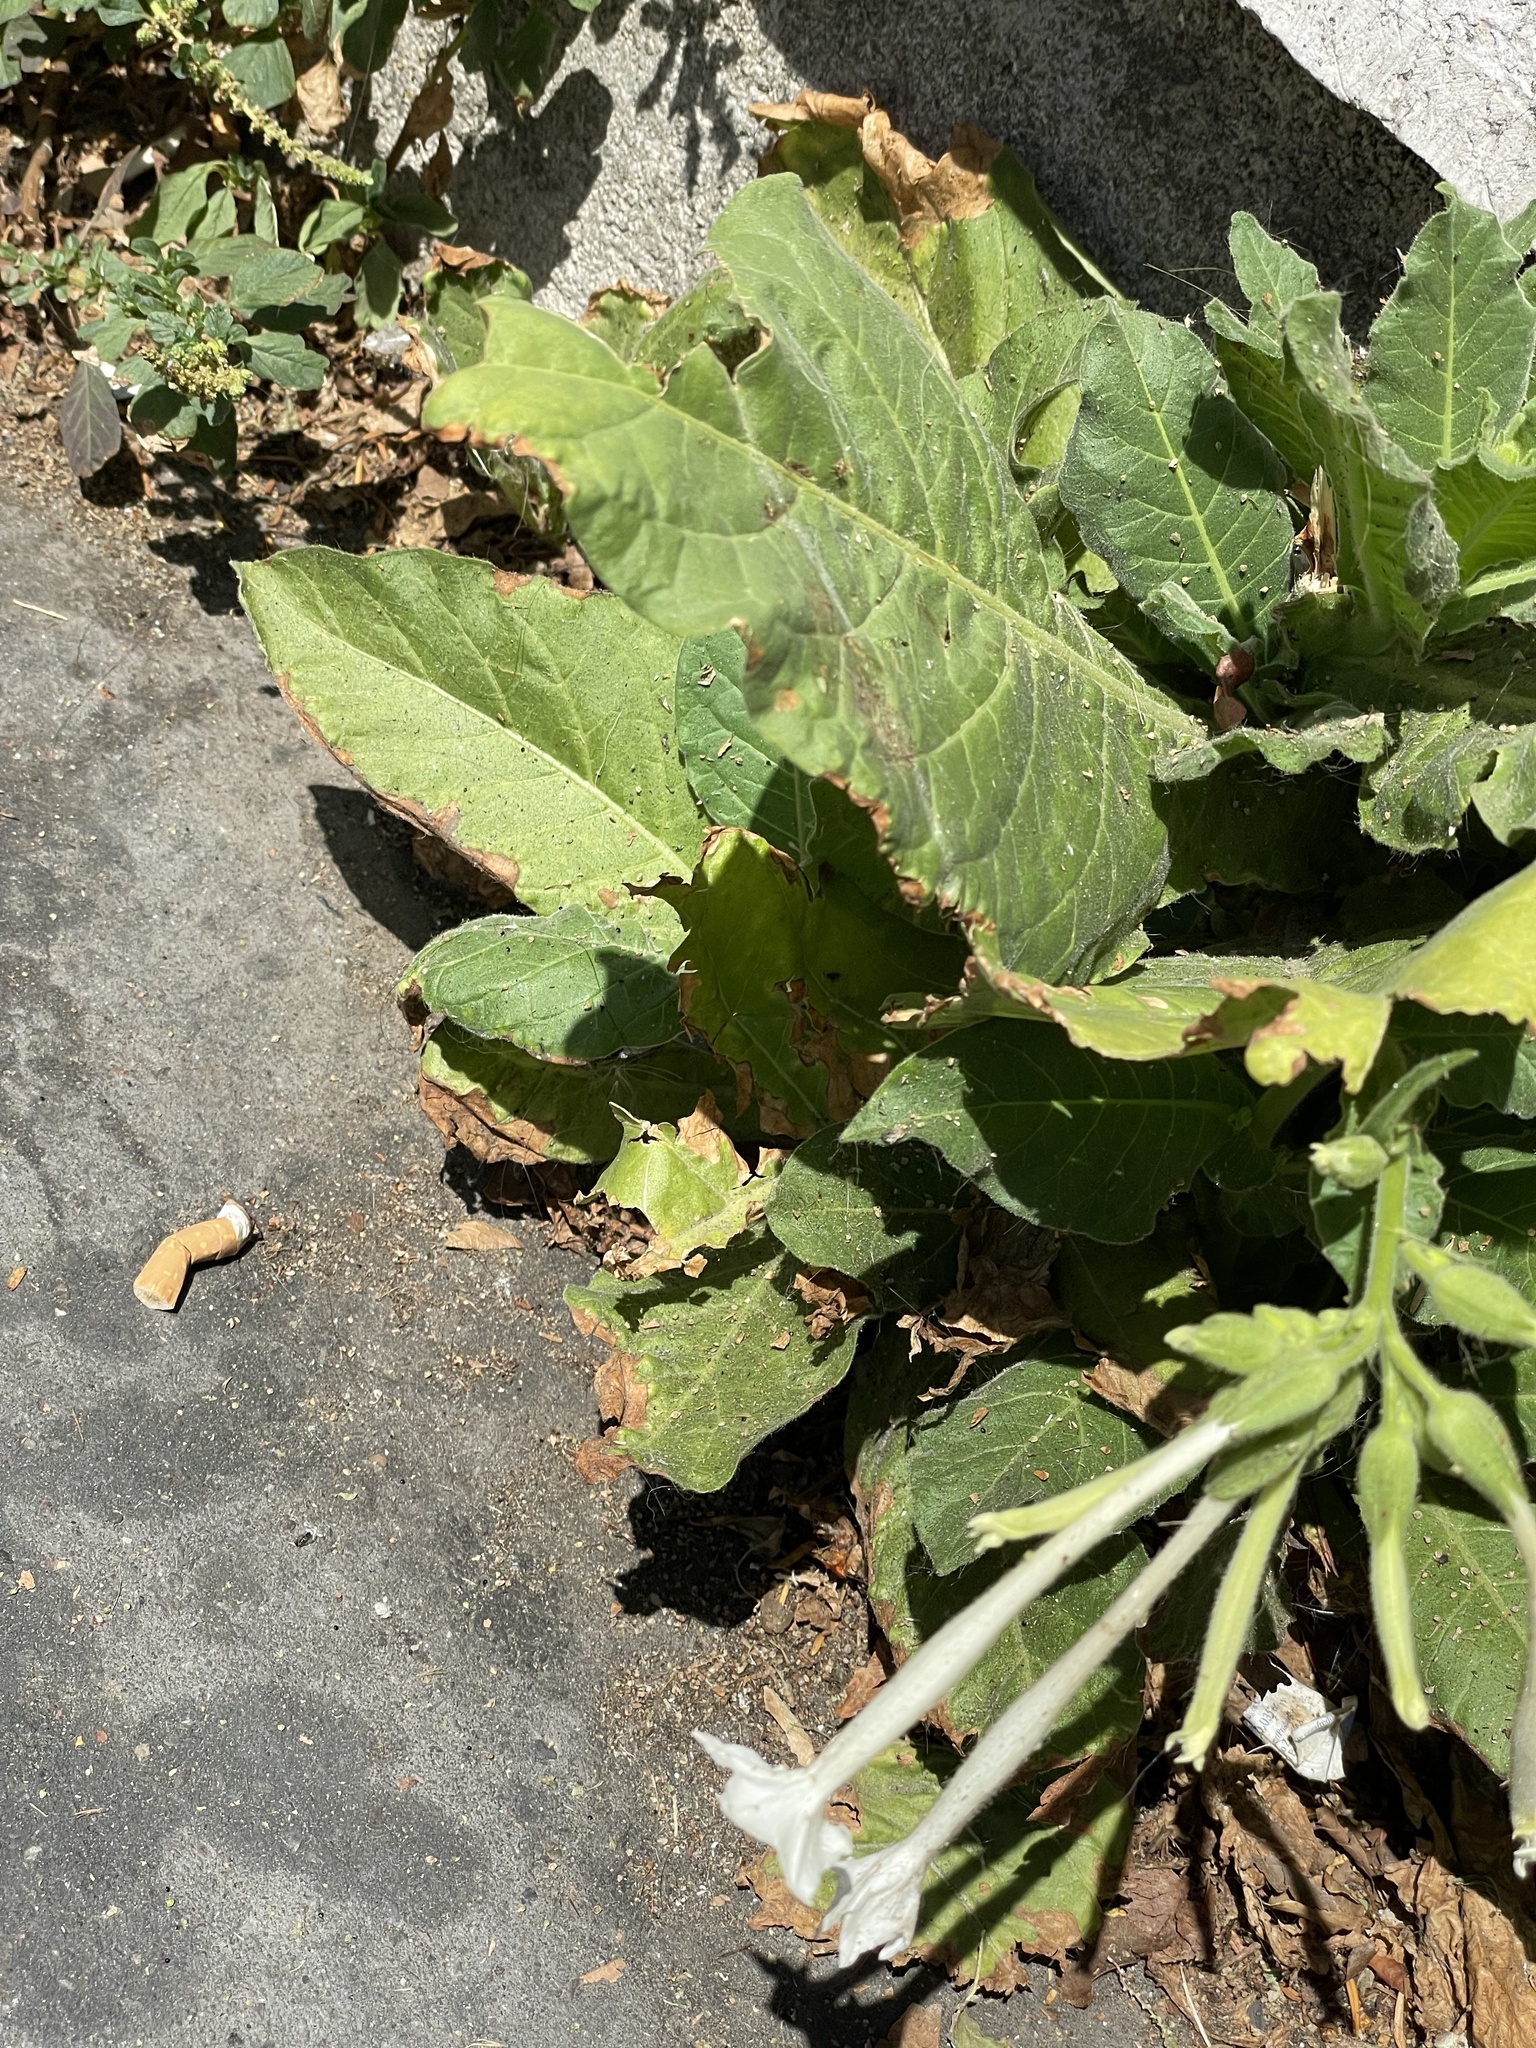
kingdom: Plantae
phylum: Tracheophyta
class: Magnoliopsida
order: Solanales
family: Solanaceae
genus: Nicotiana
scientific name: Nicotiana sylvestris
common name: Flowering tobacco
